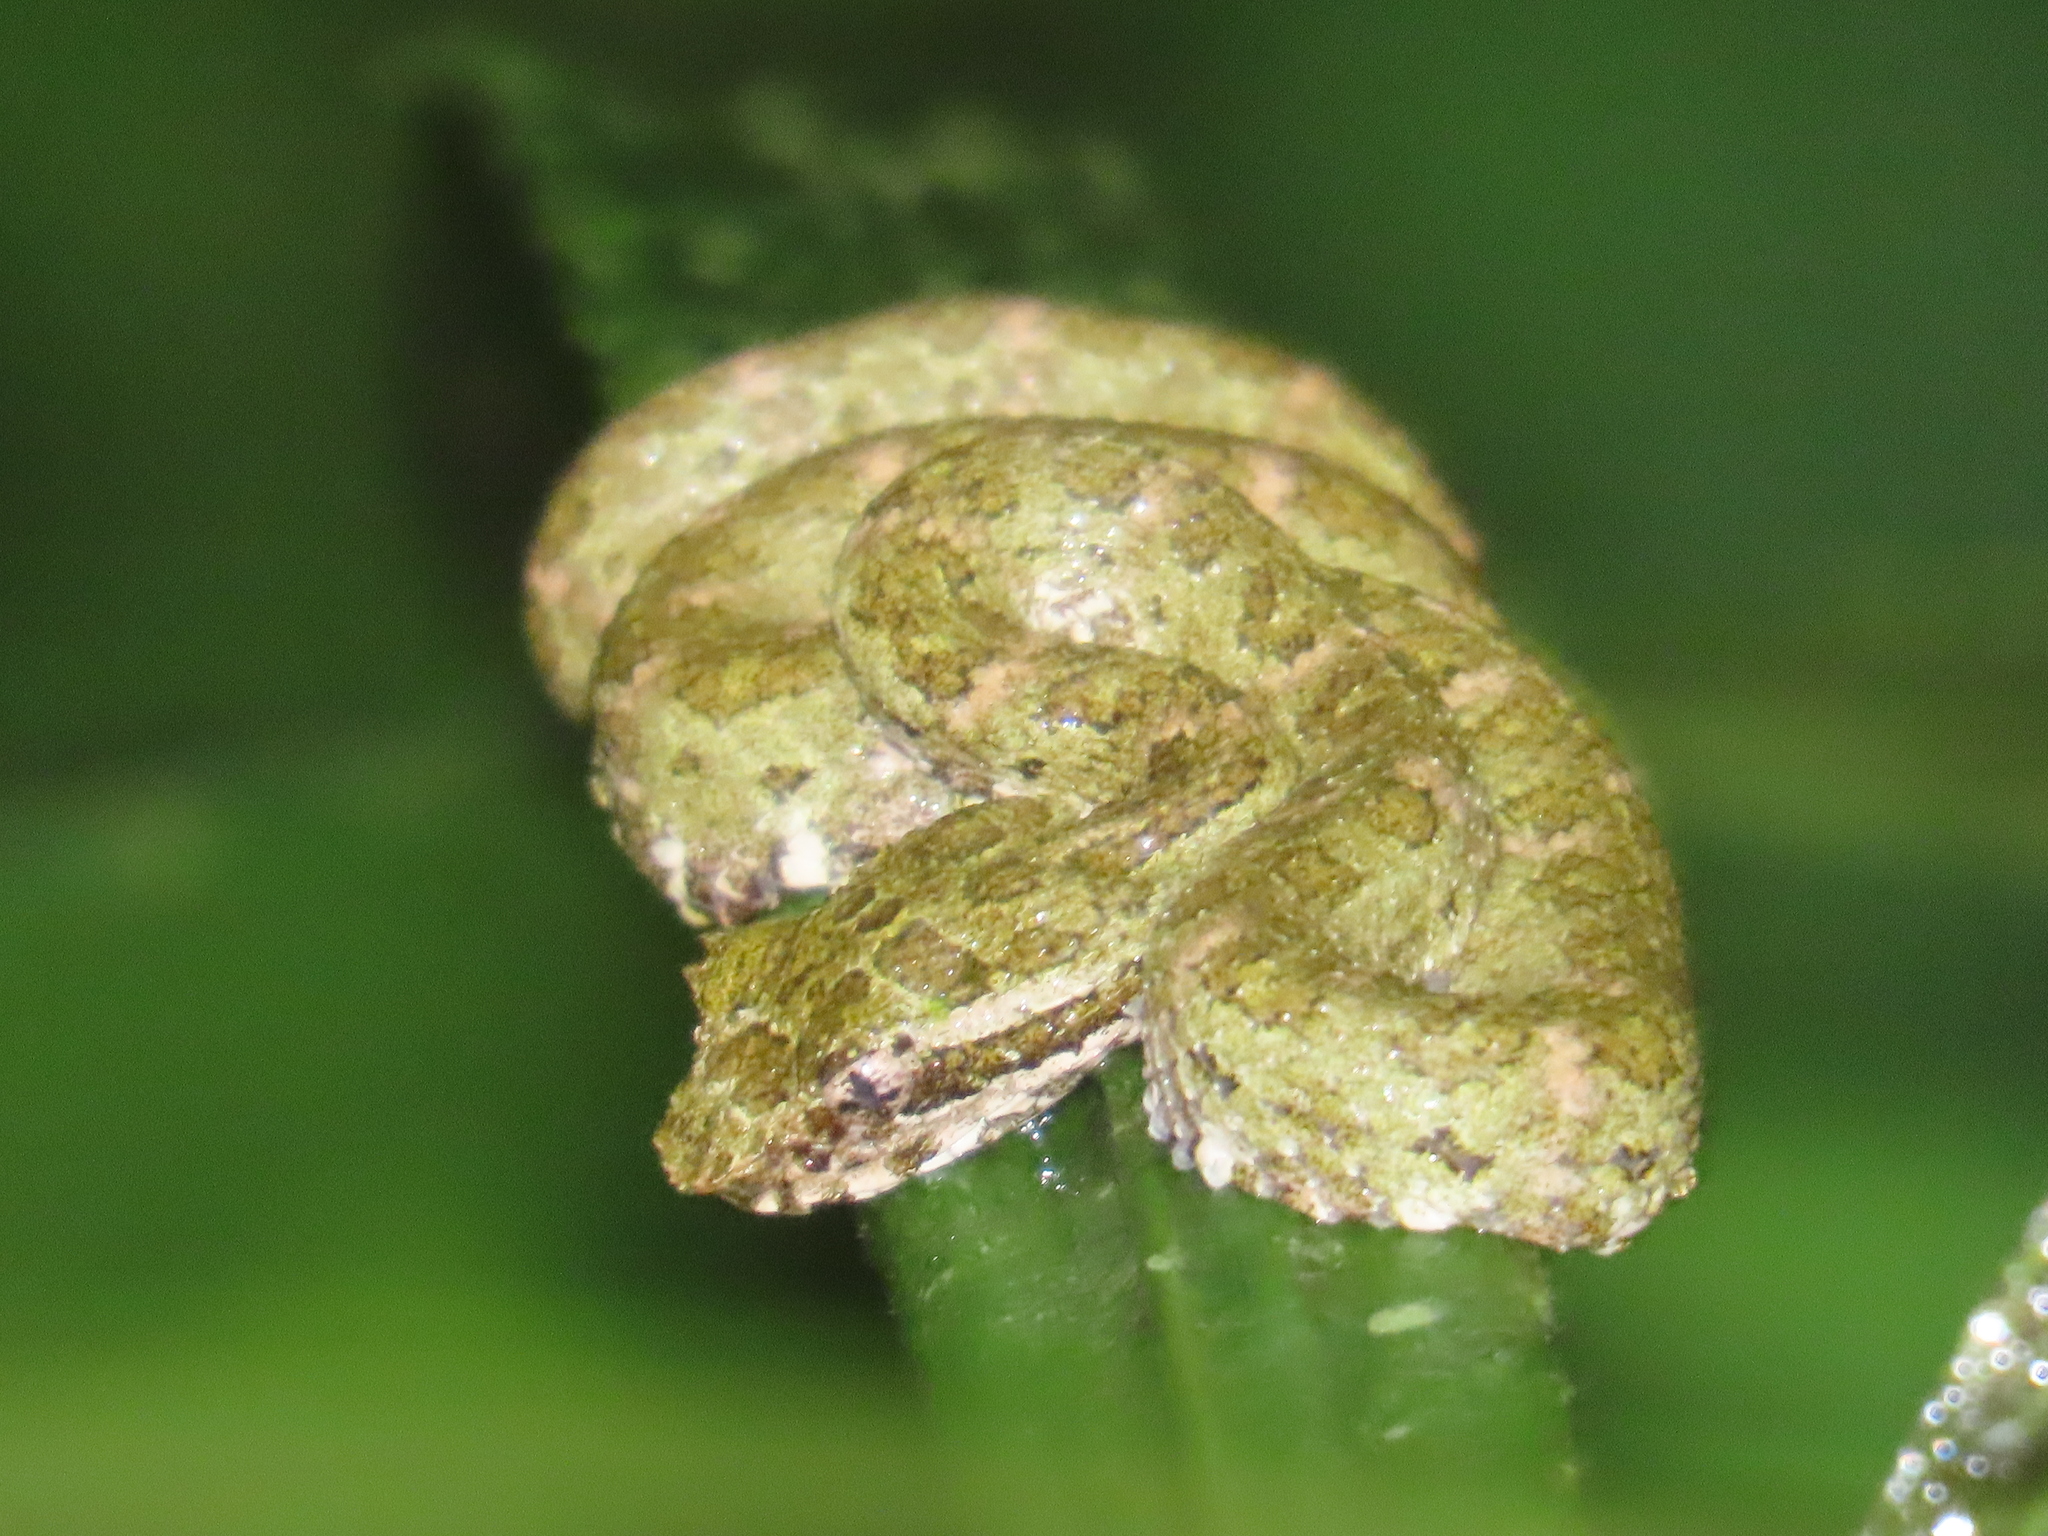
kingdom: Animalia
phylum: Chordata
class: Squamata
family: Viperidae
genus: Bothriechis
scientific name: Bothriechis schlegelii
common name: Eyelash viper
